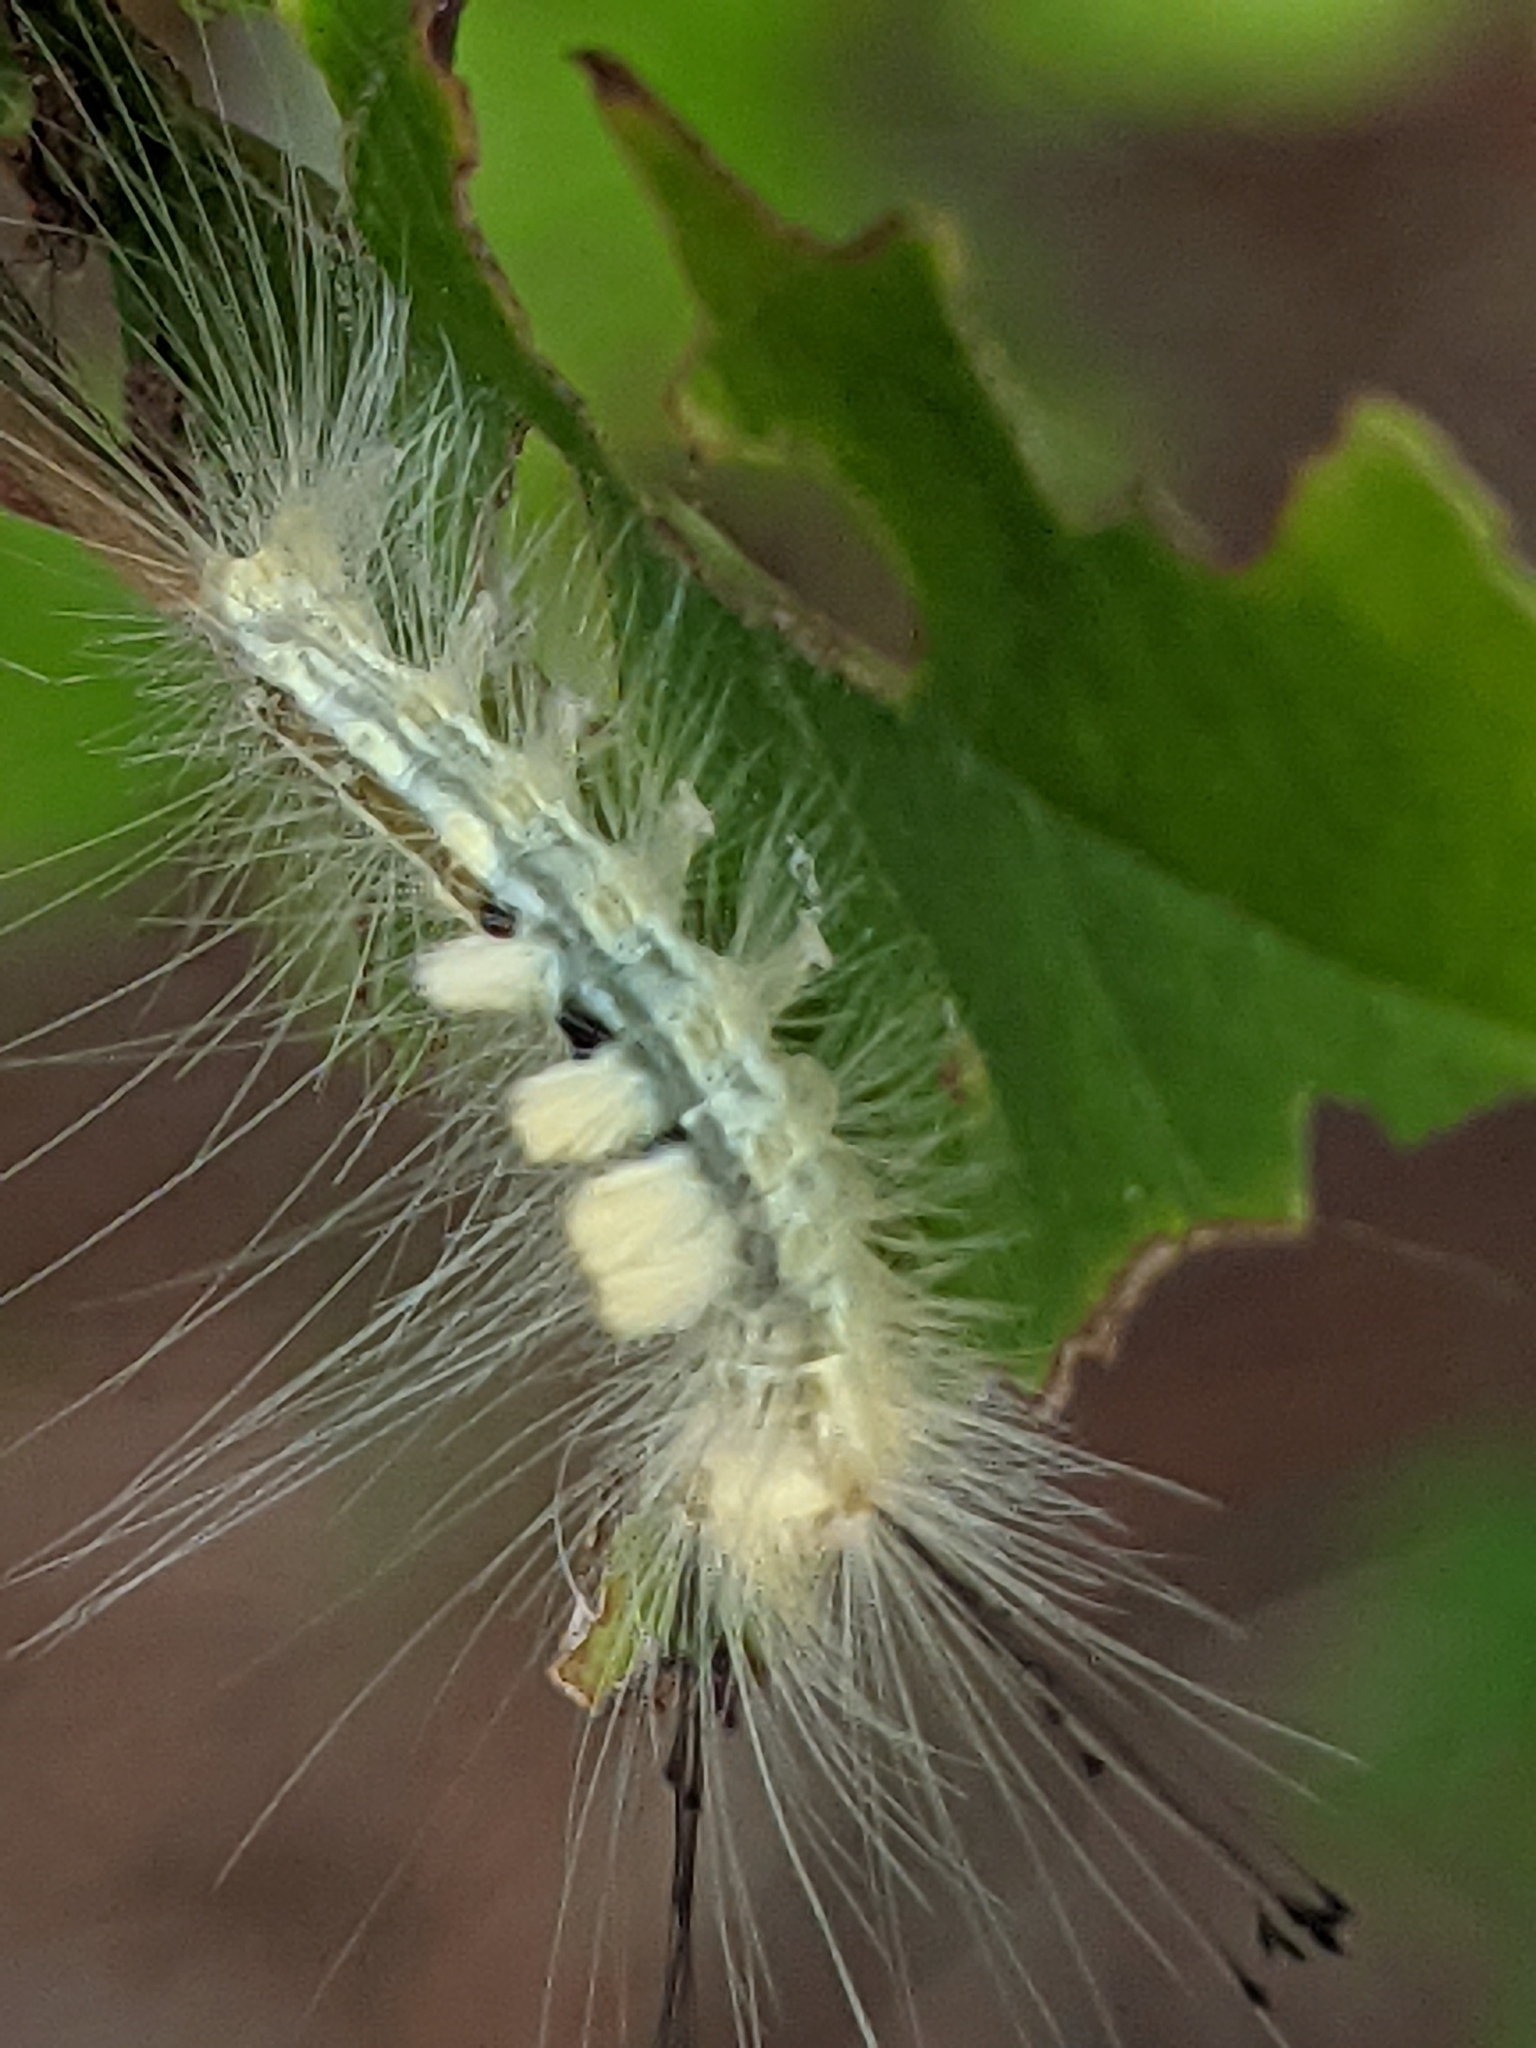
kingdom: Animalia
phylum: Arthropoda
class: Insecta
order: Lepidoptera
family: Erebidae
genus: Orgyia
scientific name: Orgyia definita
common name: Definite tussock moth
